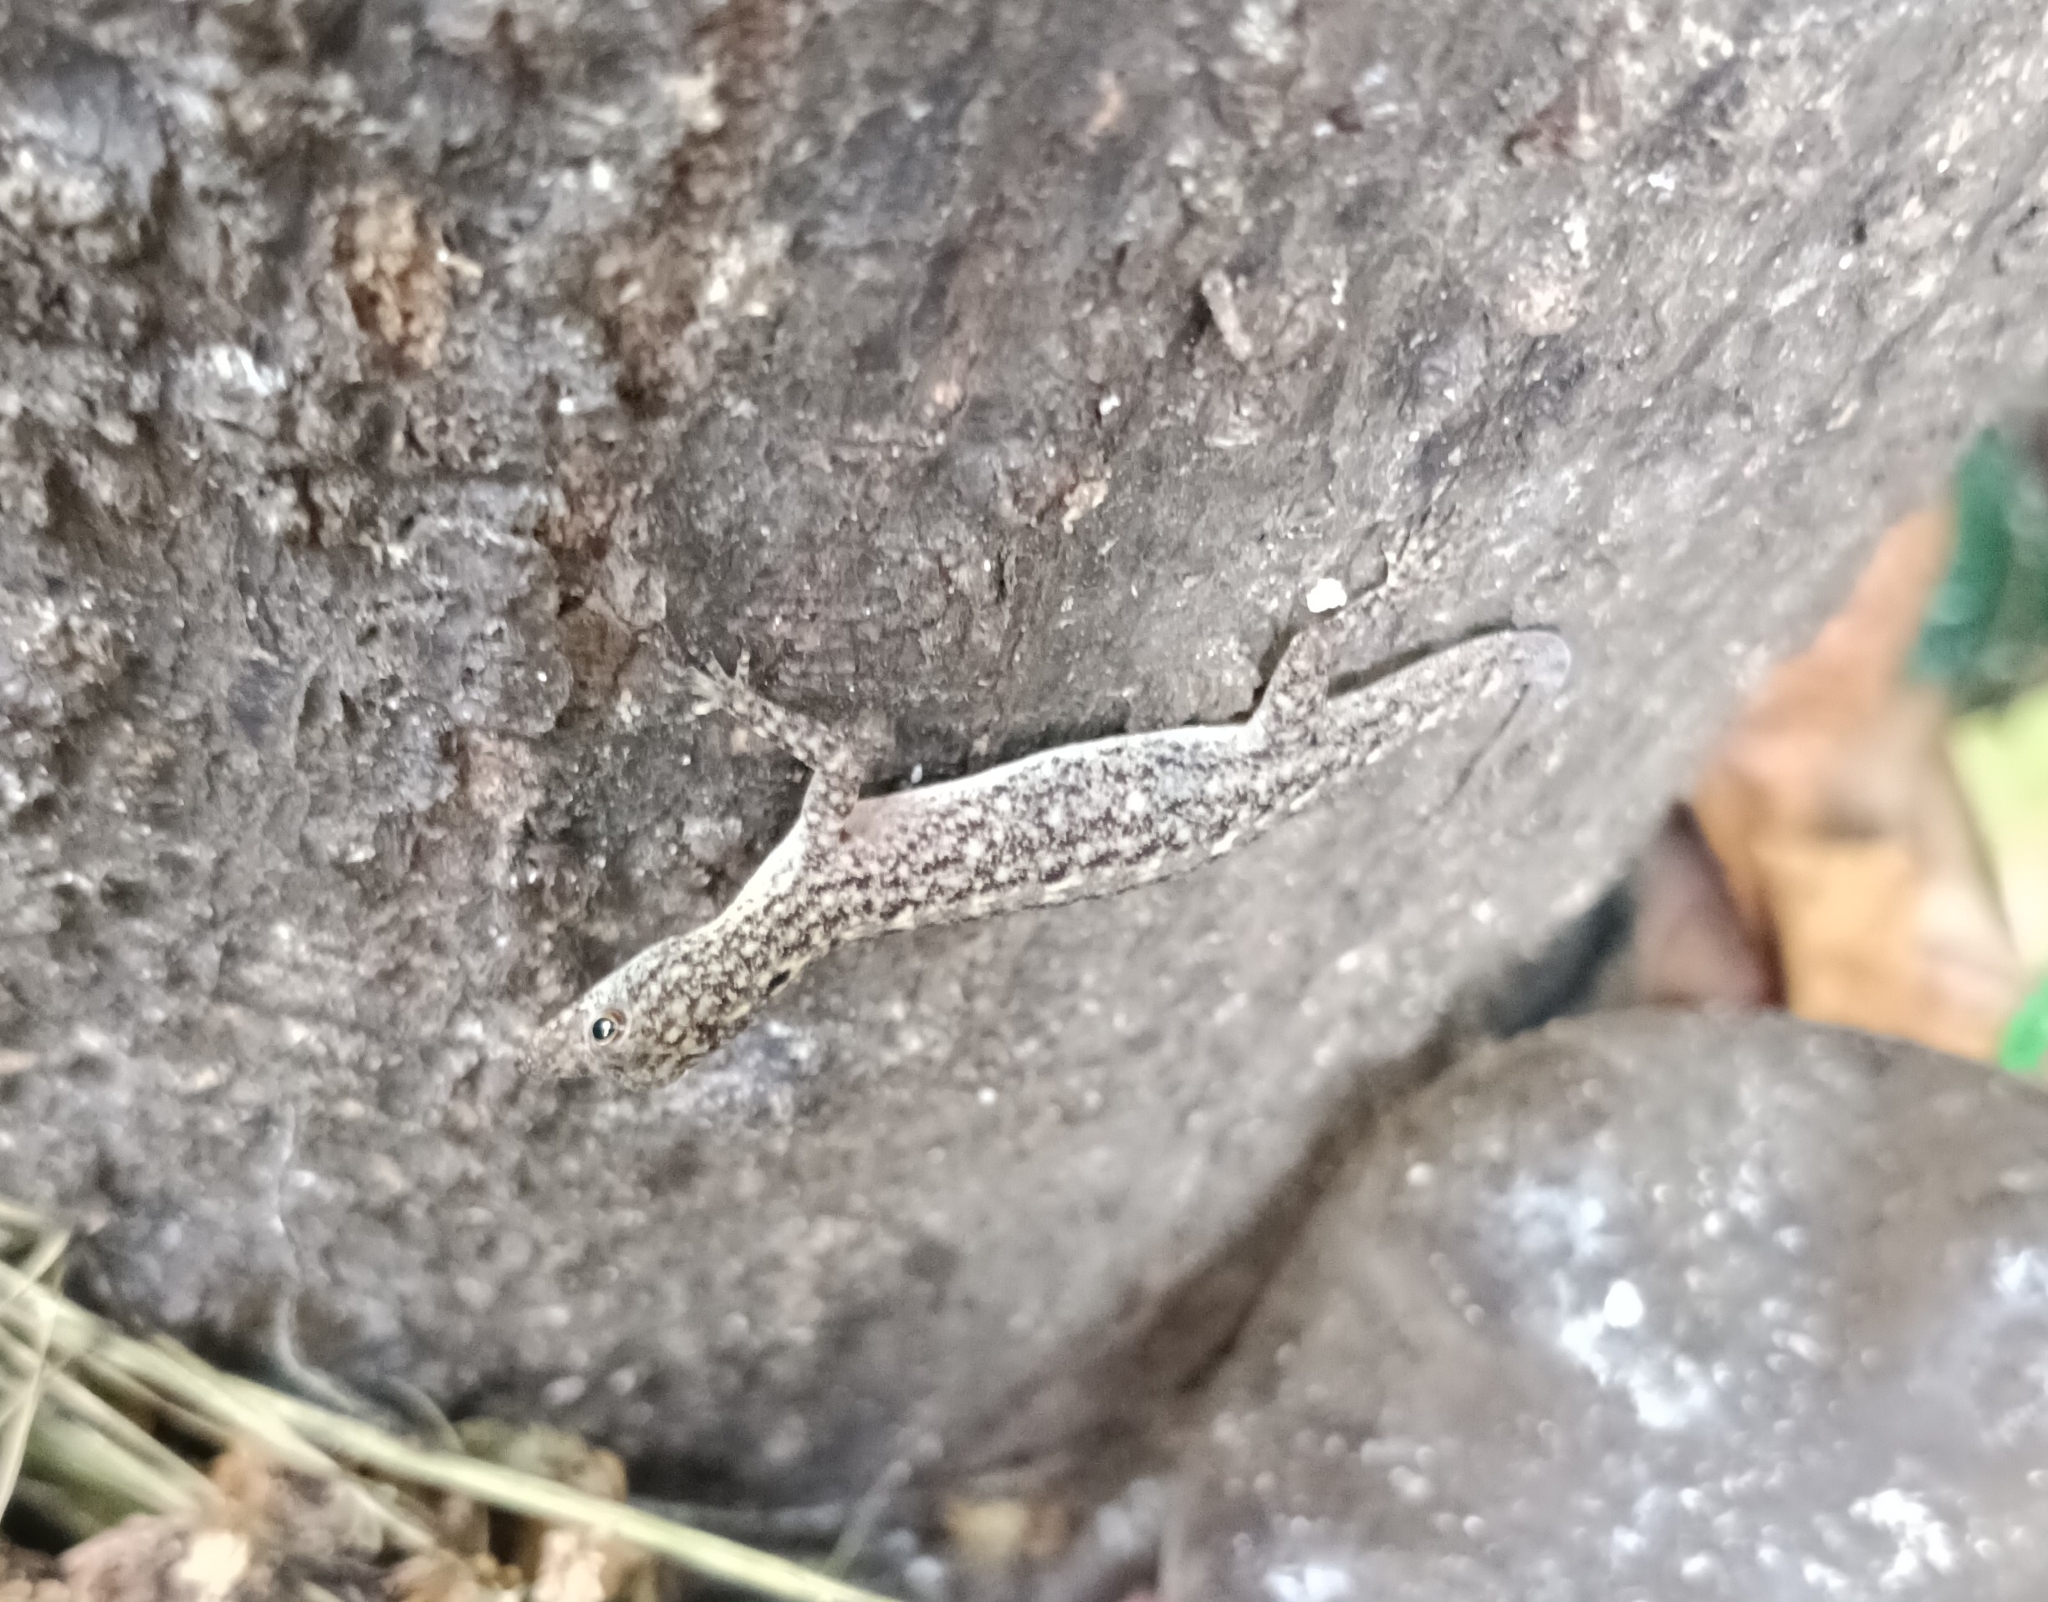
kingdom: Animalia
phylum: Chordata
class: Squamata
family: Gekkonidae
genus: Cnemaspis
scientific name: Cnemaspis littoralis
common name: Coastal day gecko
